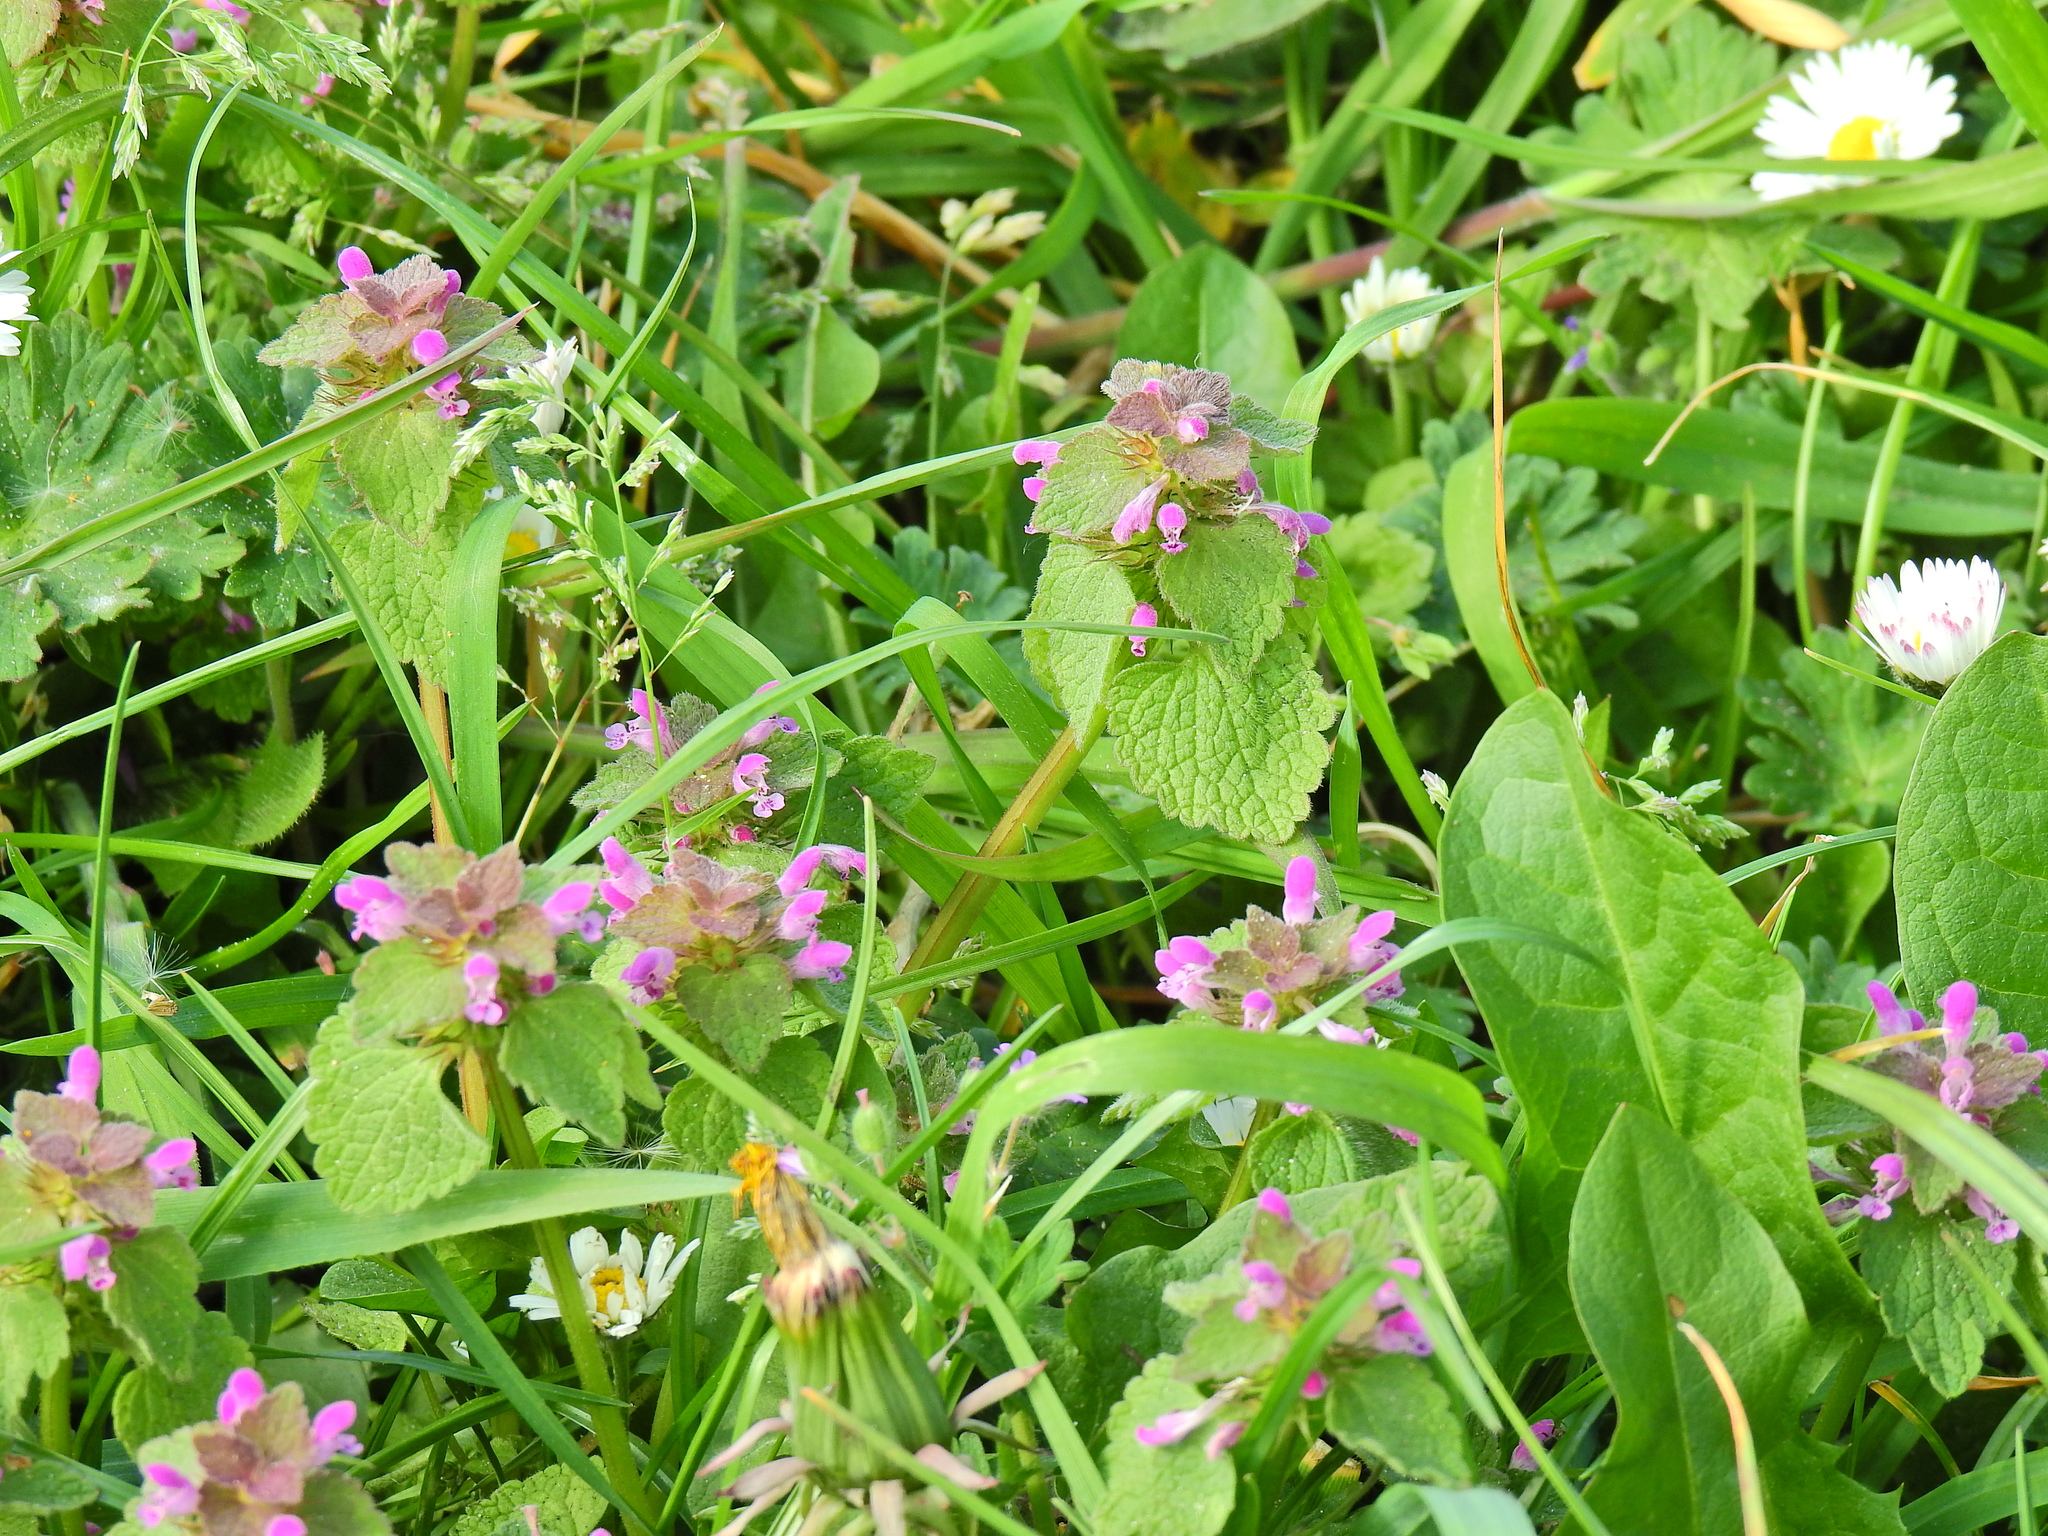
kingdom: Plantae
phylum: Tracheophyta
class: Magnoliopsida
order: Lamiales
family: Lamiaceae
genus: Lamium
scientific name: Lamium purpureum
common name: Red dead-nettle
